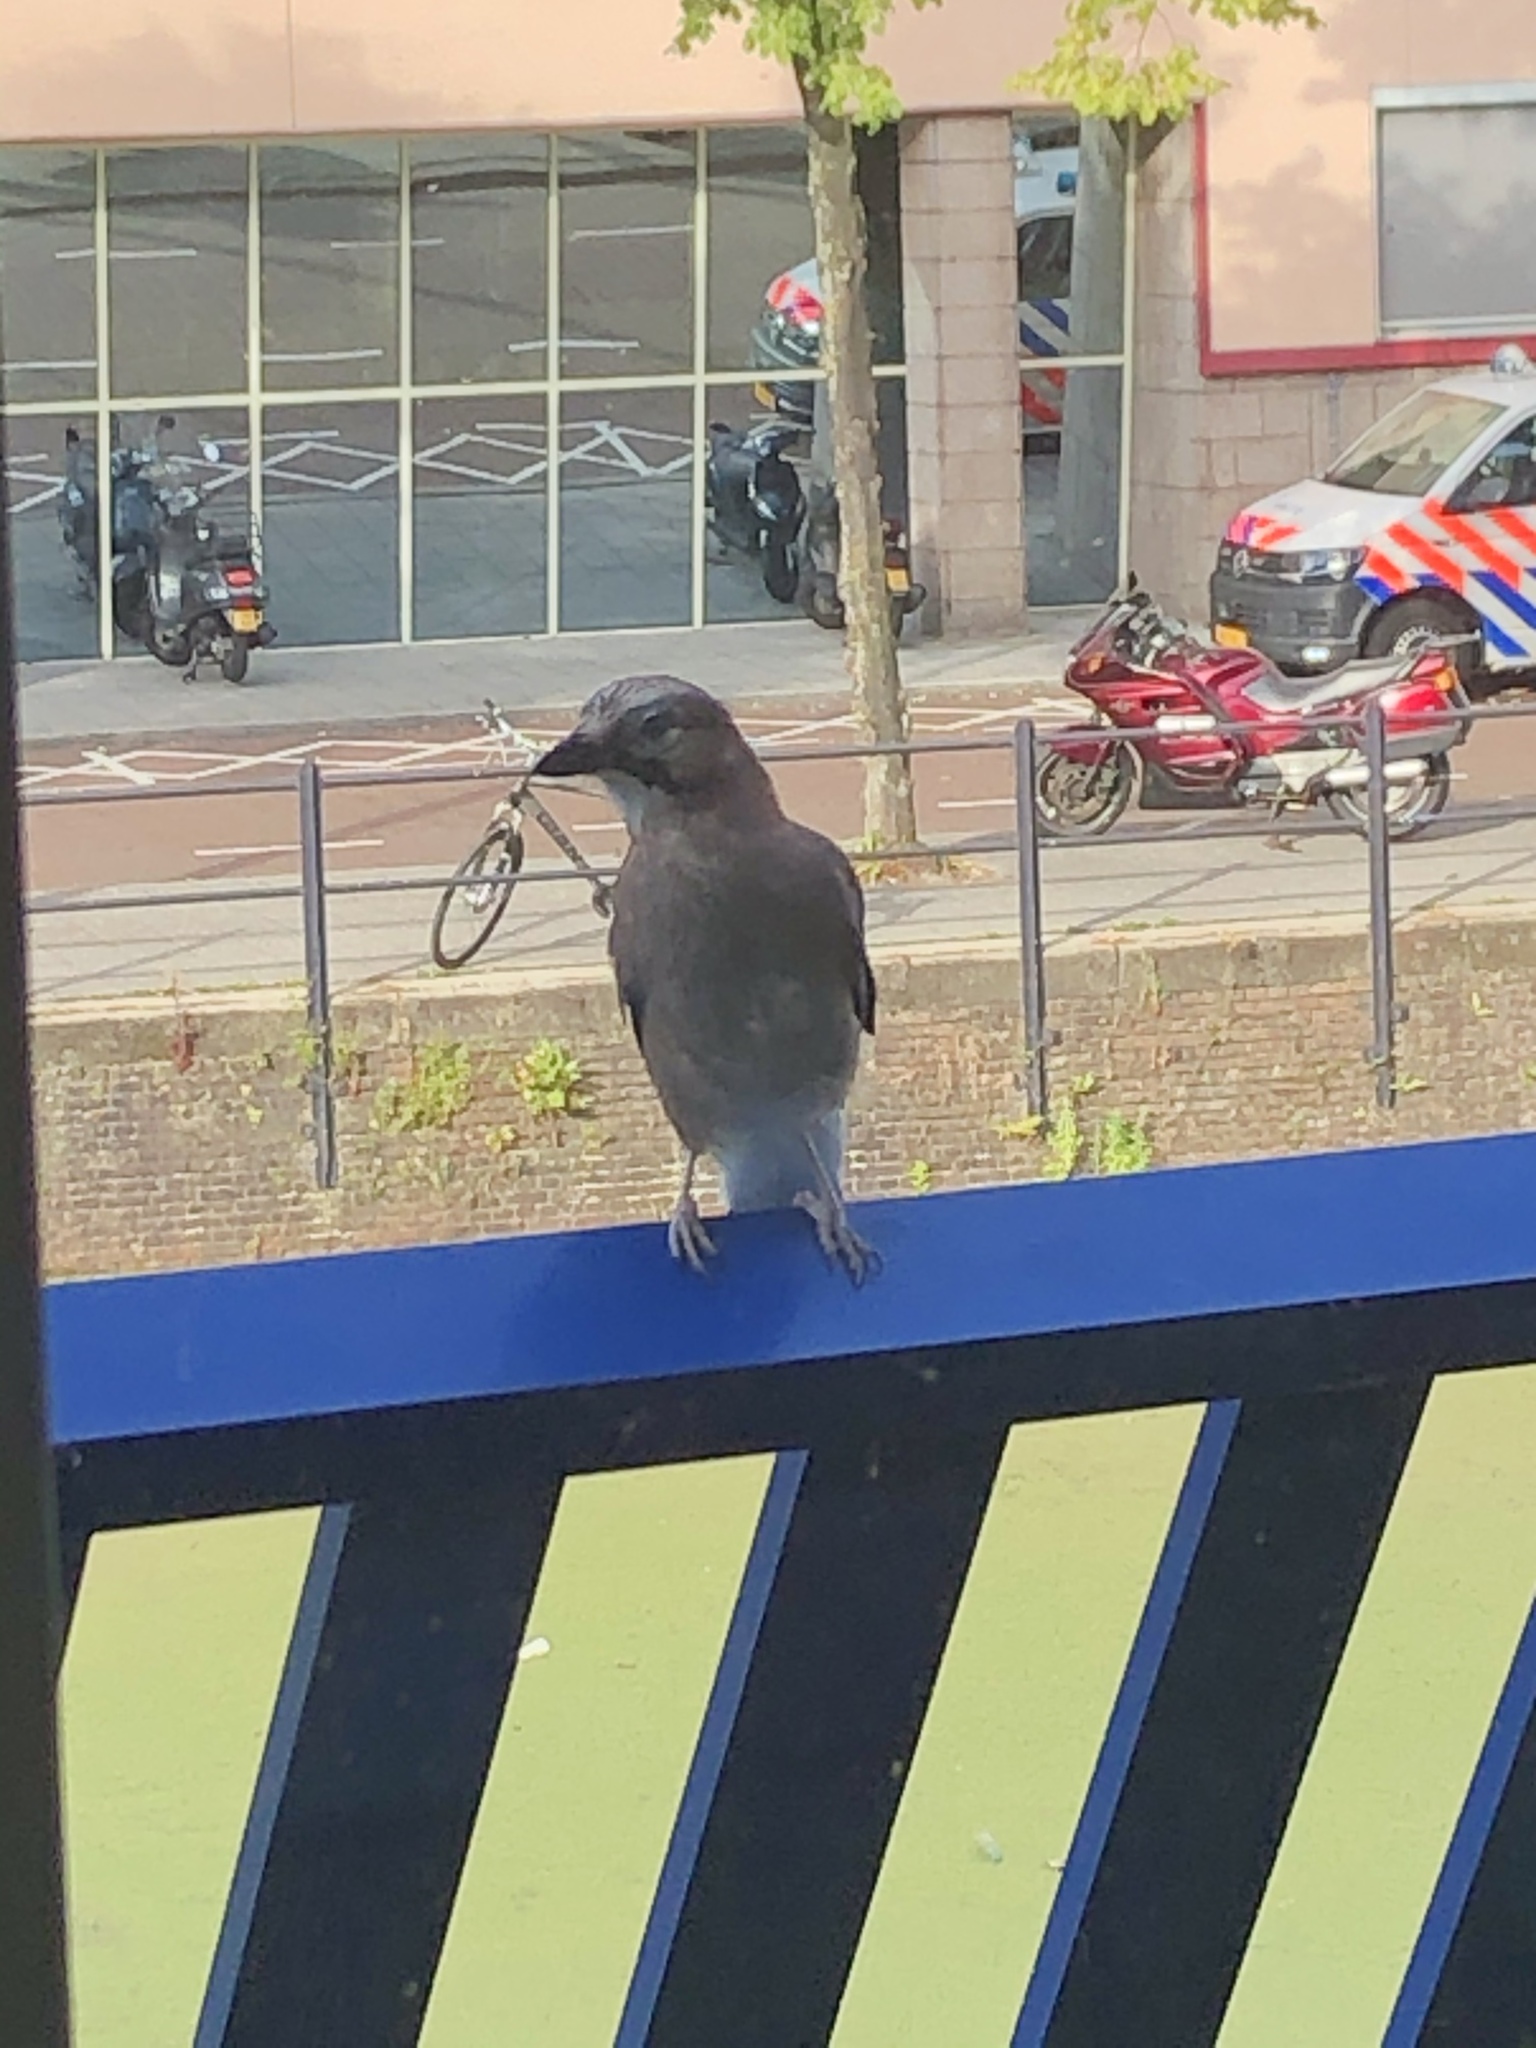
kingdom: Animalia
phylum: Chordata
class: Aves
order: Passeriformes
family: Corvidae
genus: Garrulus
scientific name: Garrulus glandarius
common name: Eurasian jay
